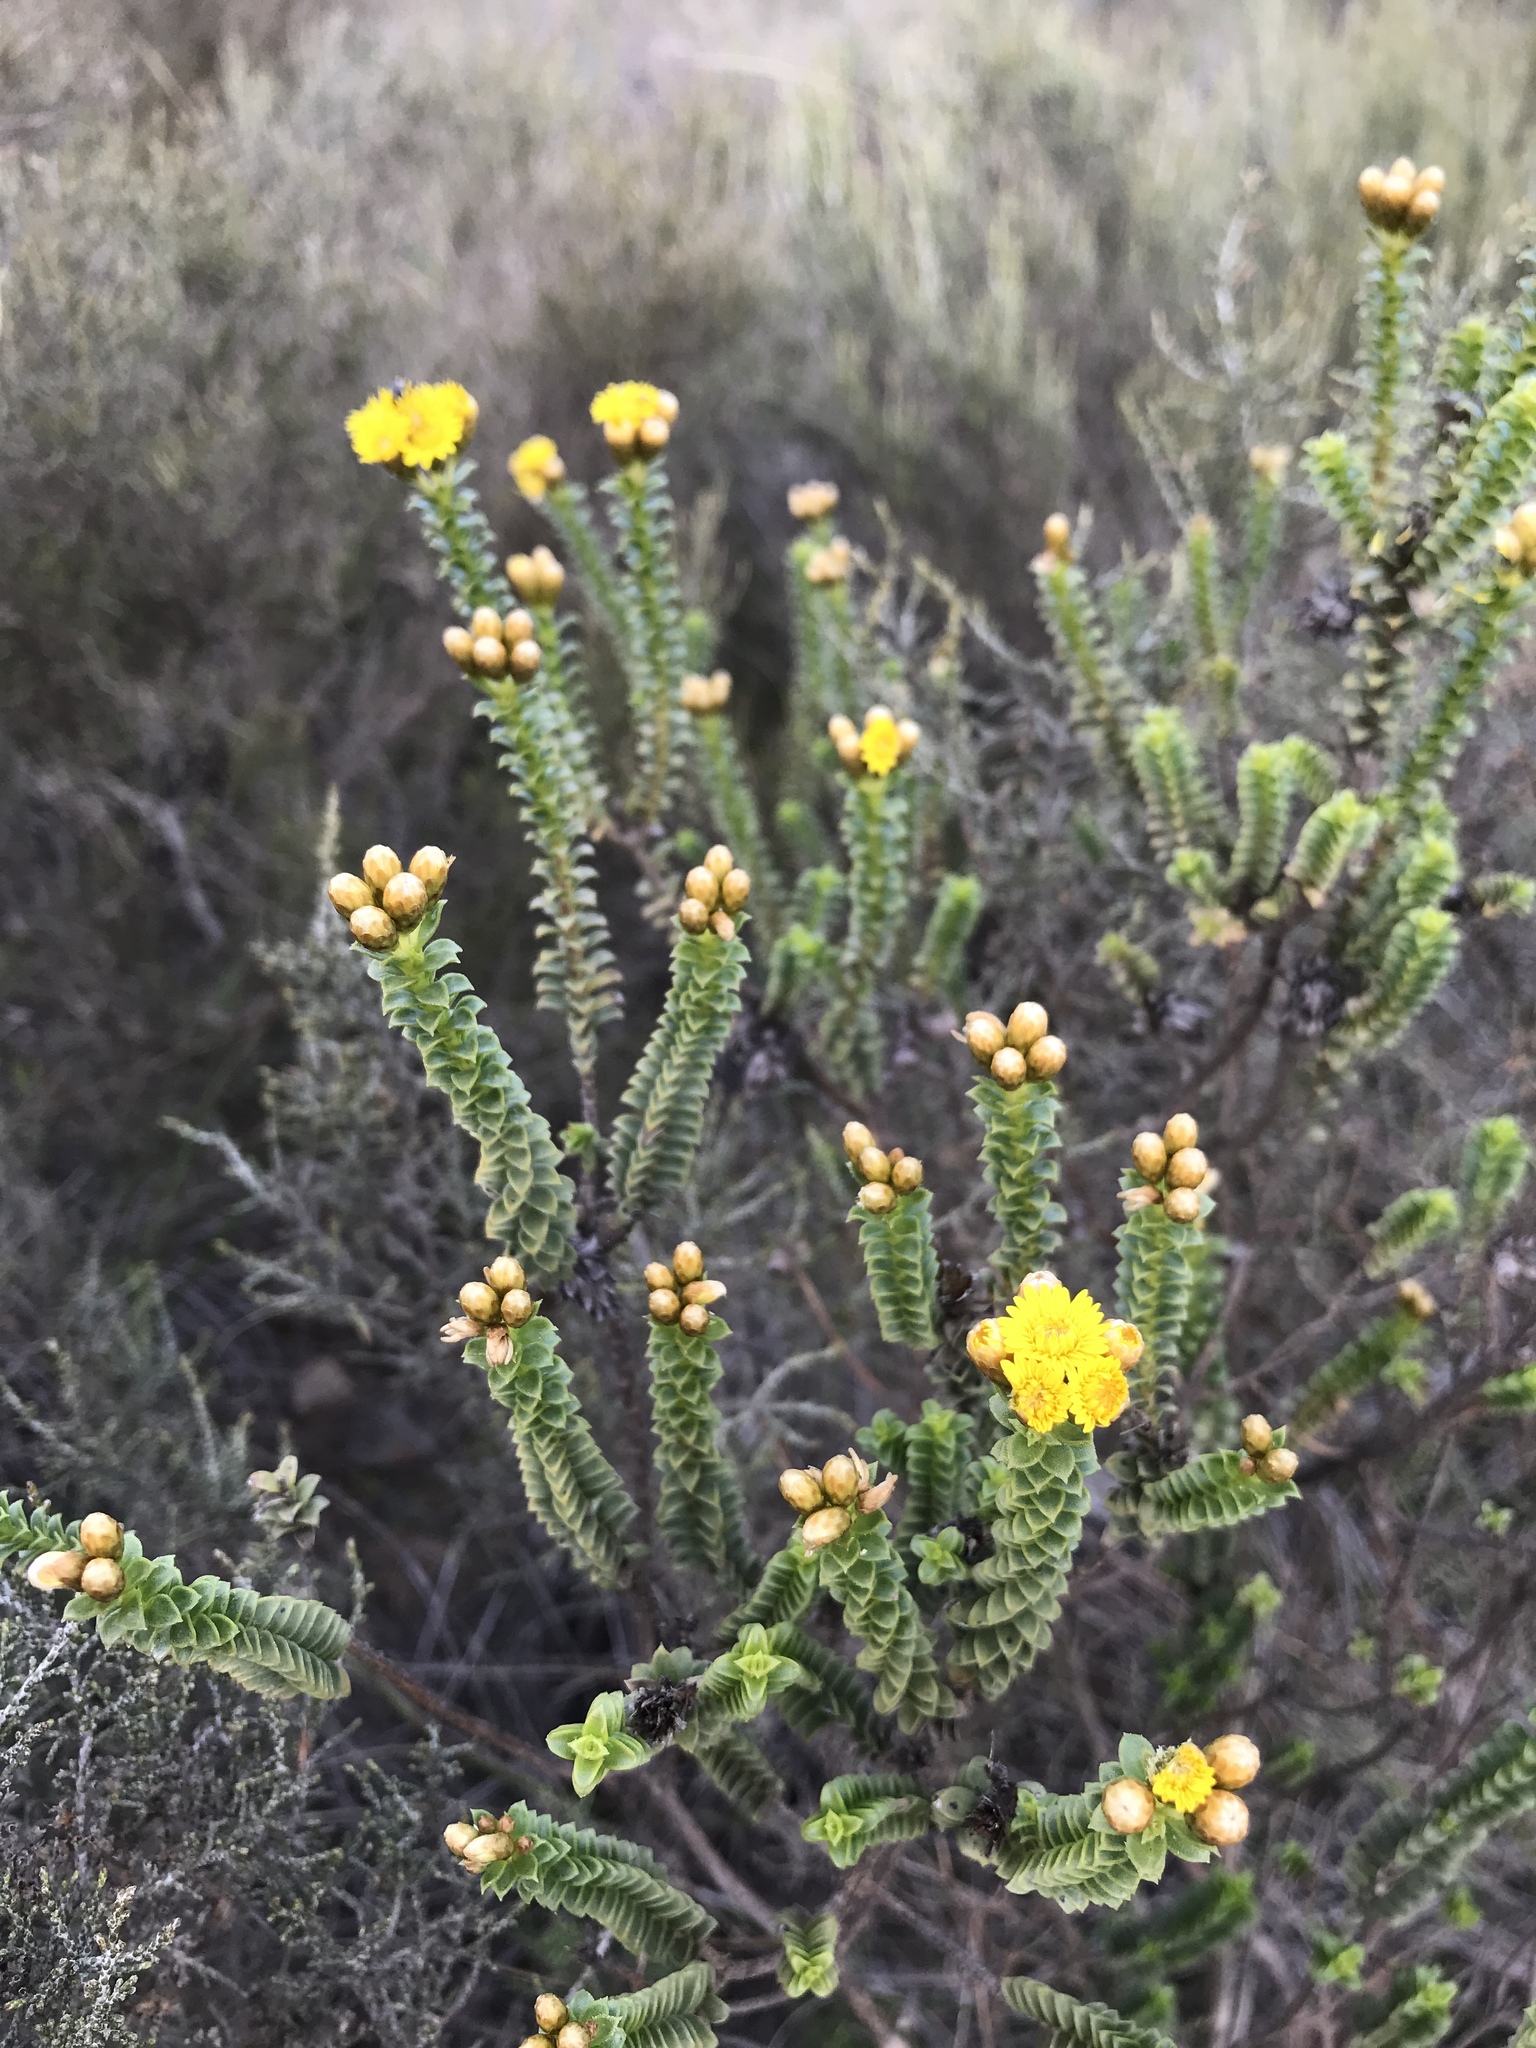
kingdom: Plantae
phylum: Tracheophyta
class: Magnoliopsida
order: Asterales
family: Asteraceae
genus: Oedera
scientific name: Oedera squarrosa
